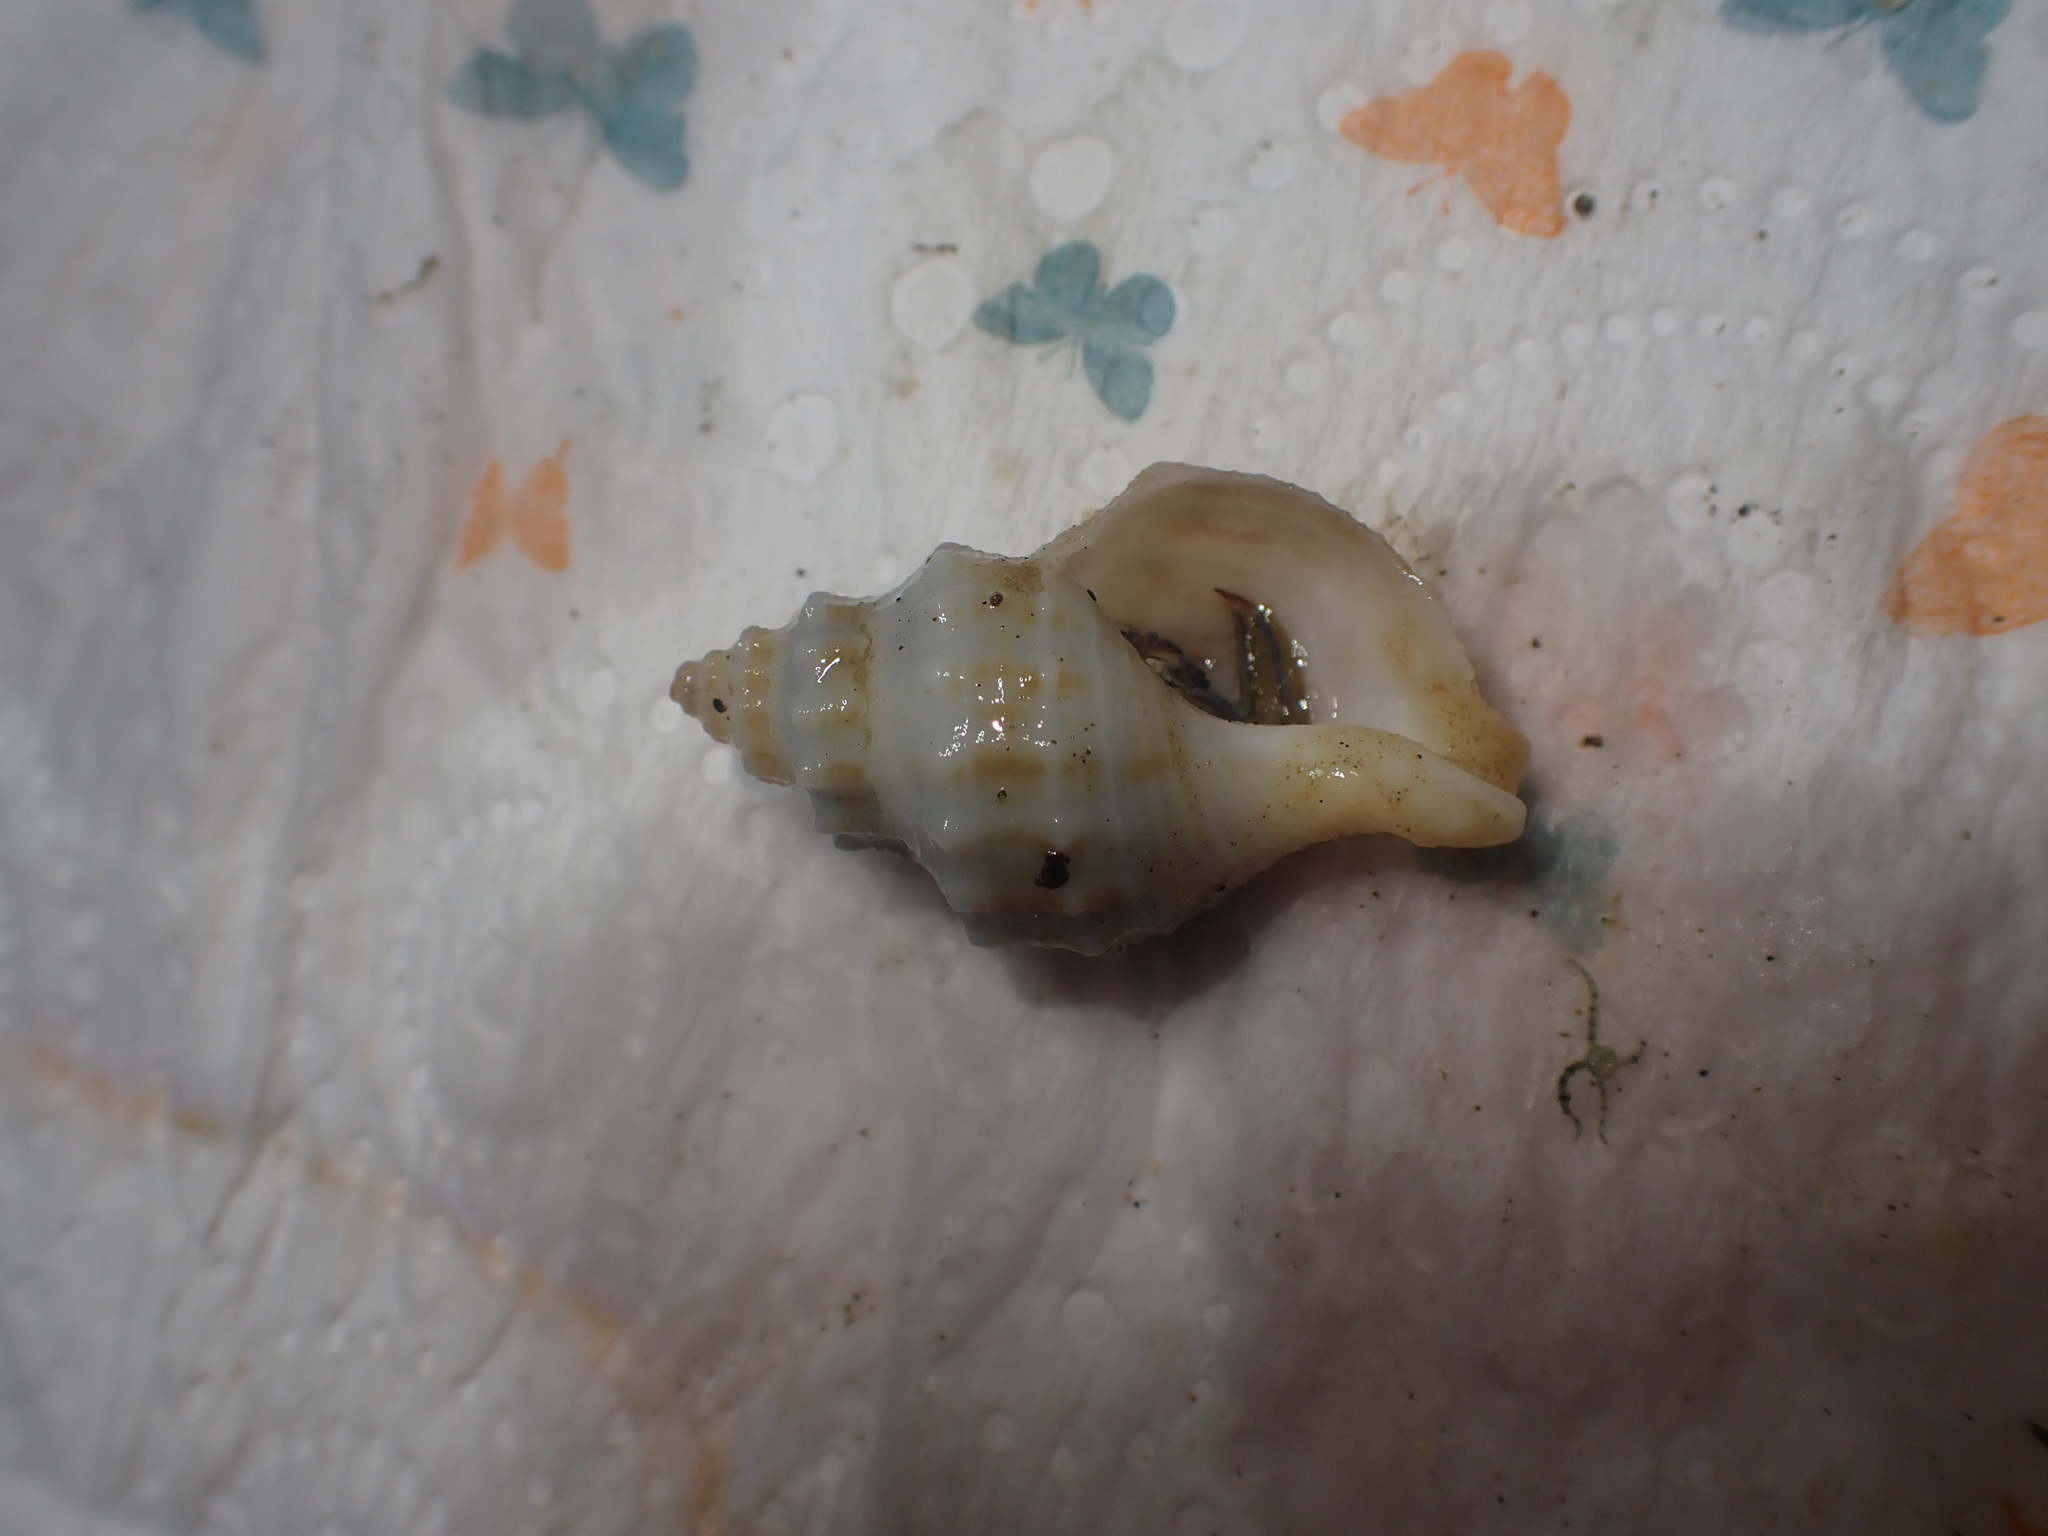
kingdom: Animalia
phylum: Mollusca
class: Gastropoda
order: Neogastropoda
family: Prosiphonidae
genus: Austrofusus
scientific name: Austrofusus glans
